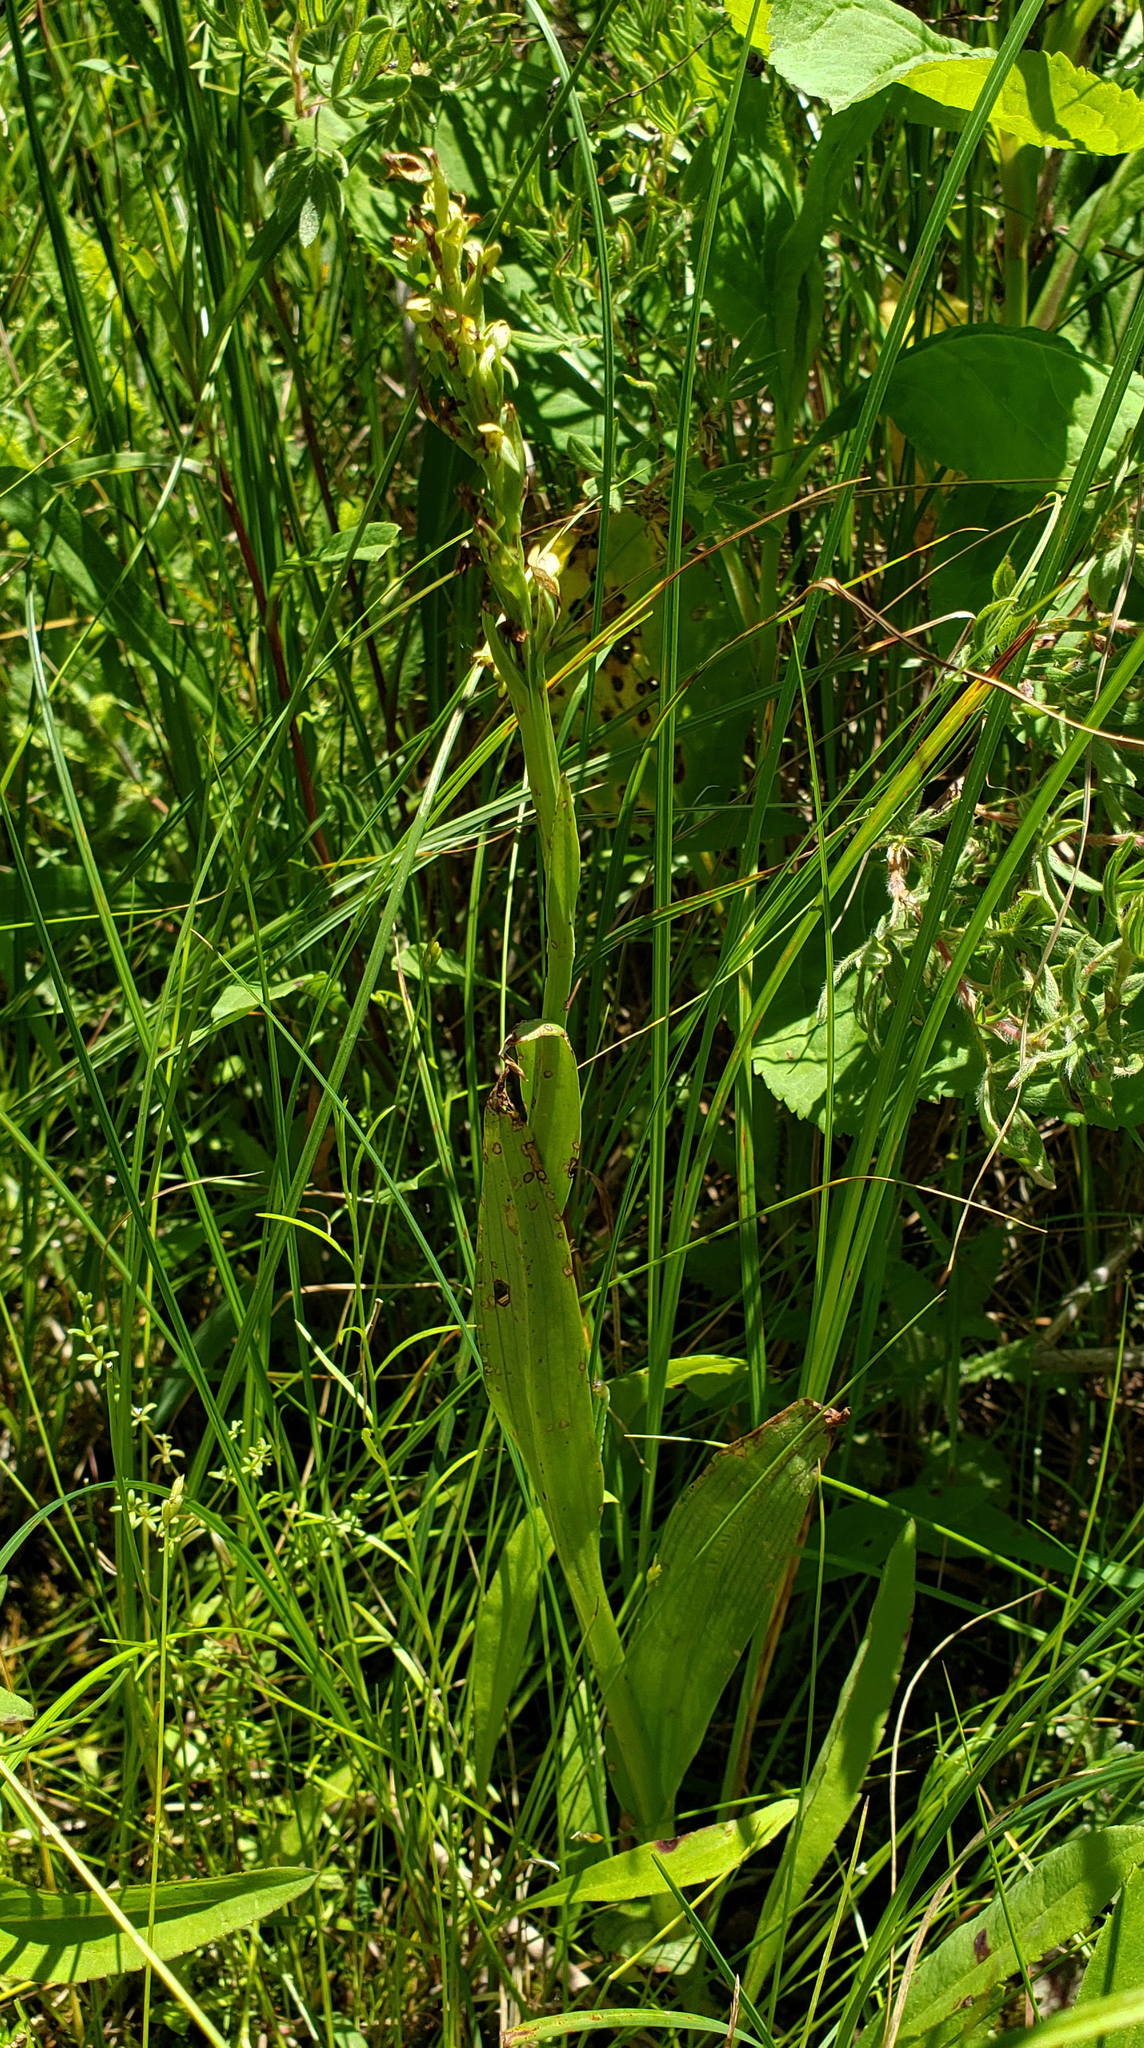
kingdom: Plantae
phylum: Tracheophyta
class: Liliopsida
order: Asparagales
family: Orchidaceae
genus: Platanthera
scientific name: Platanthera aquilonis
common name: Northern green orchid
